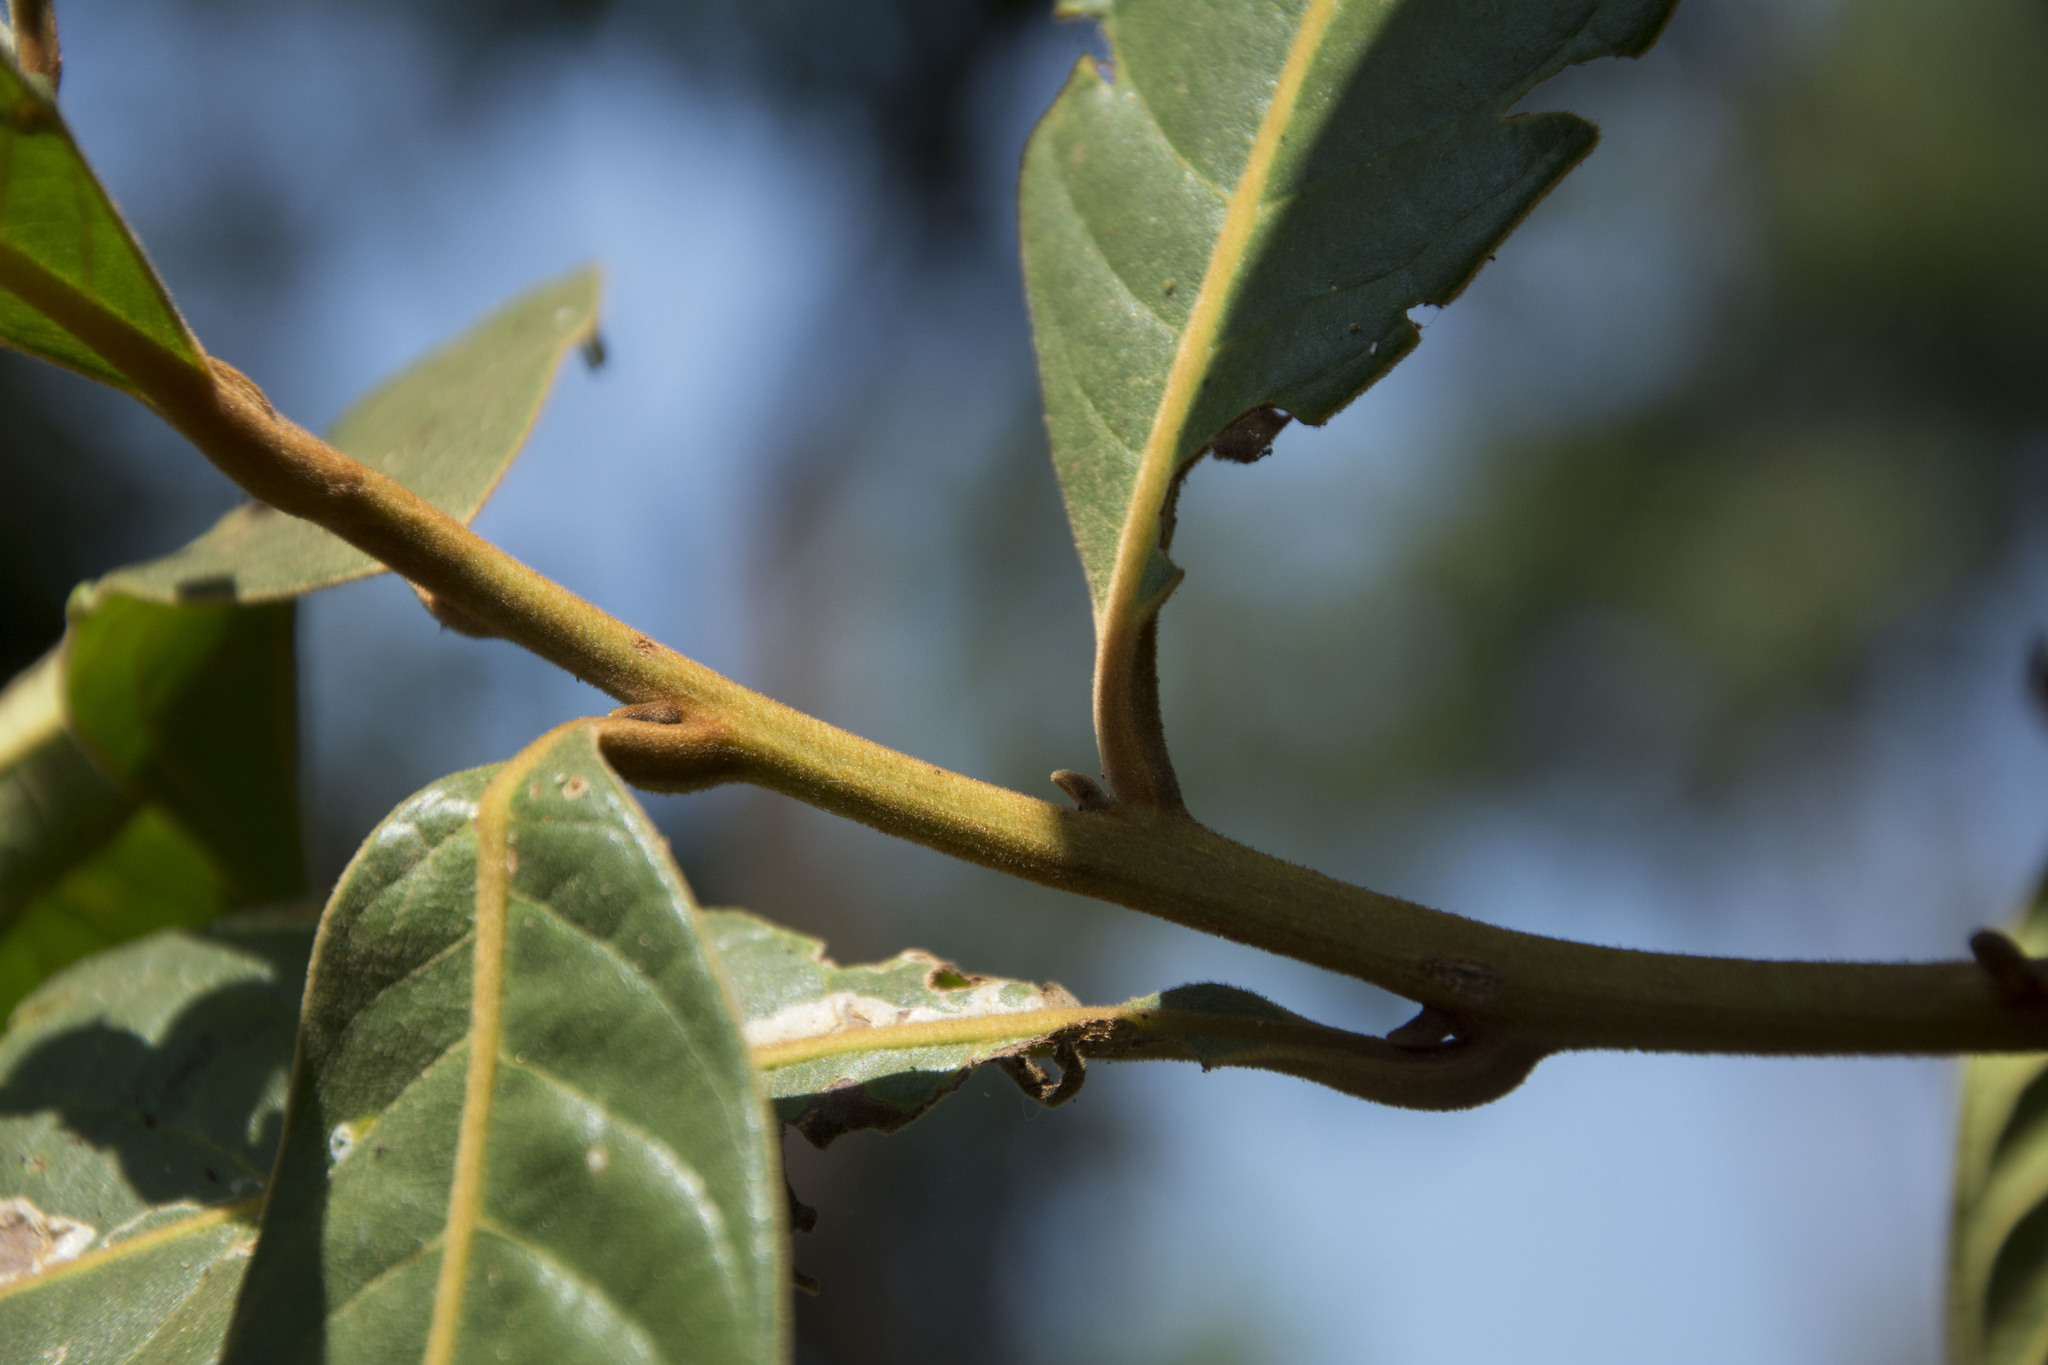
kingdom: Plantae
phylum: Tracheophyta
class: Magnoliopsida
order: Laurales
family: Lauraceae
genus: Litsea
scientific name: Litsea floribunda
